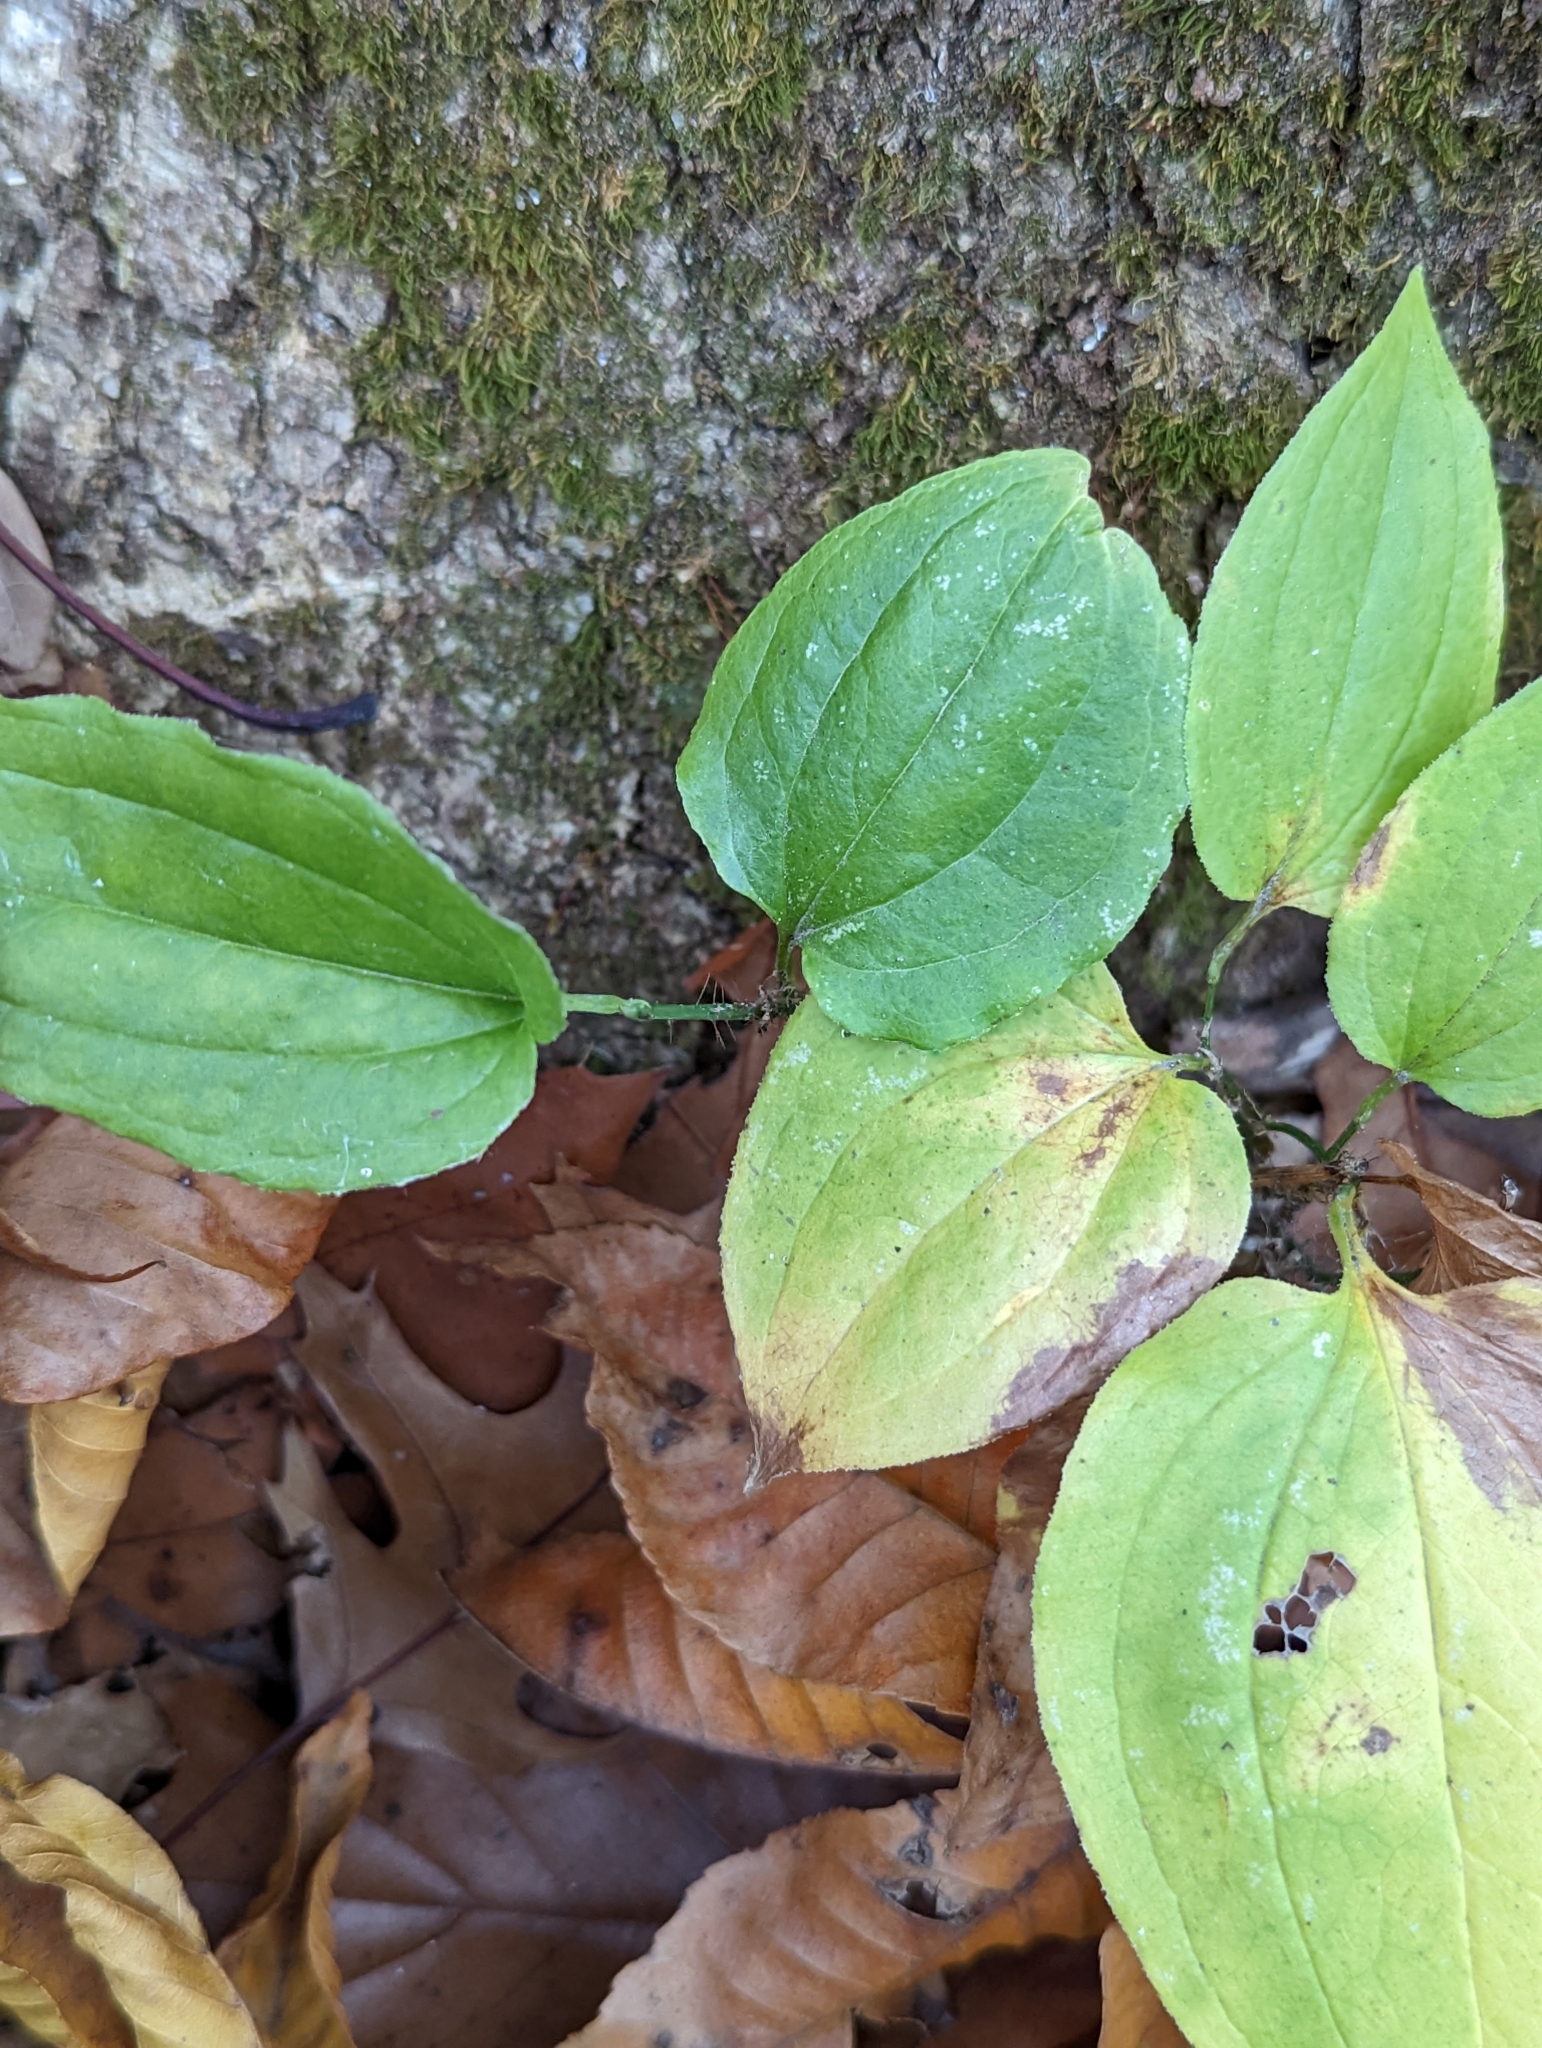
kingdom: Plantae
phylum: Tracheophyta
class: Liliopsida
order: Liliales
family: Smilacaceae
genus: Smilax
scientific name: Smilax tamnoides
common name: Hellfetter
